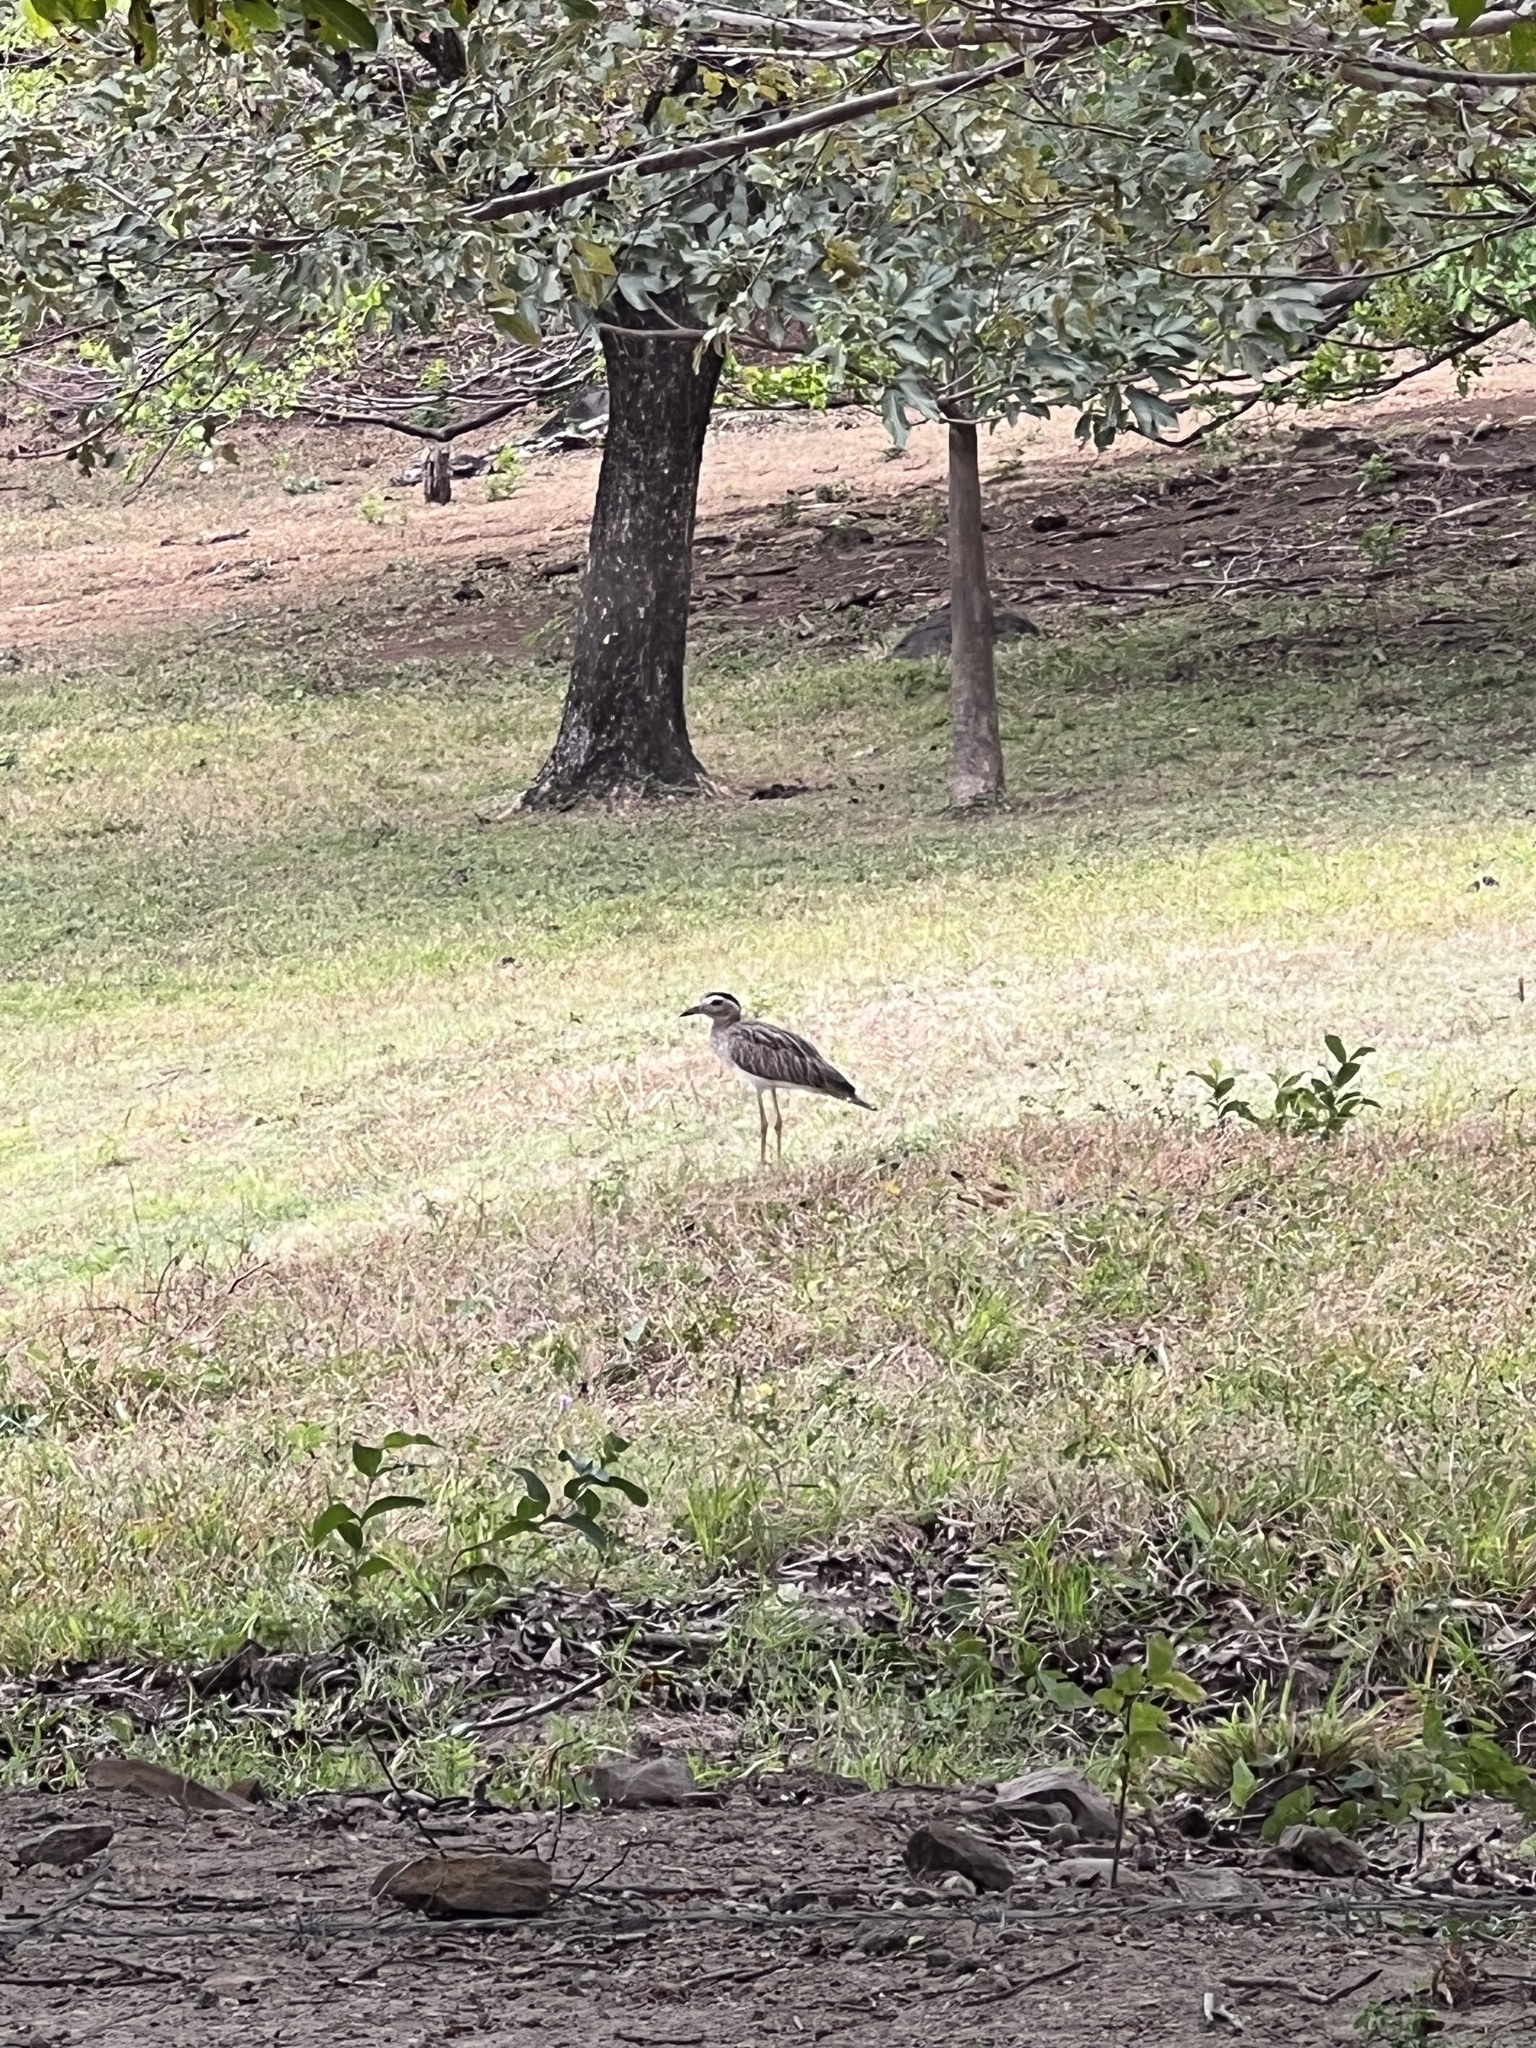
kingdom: Animalia
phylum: Chordata
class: Aves
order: Charadriiformes
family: Burhinidae
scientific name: Burhinidae
